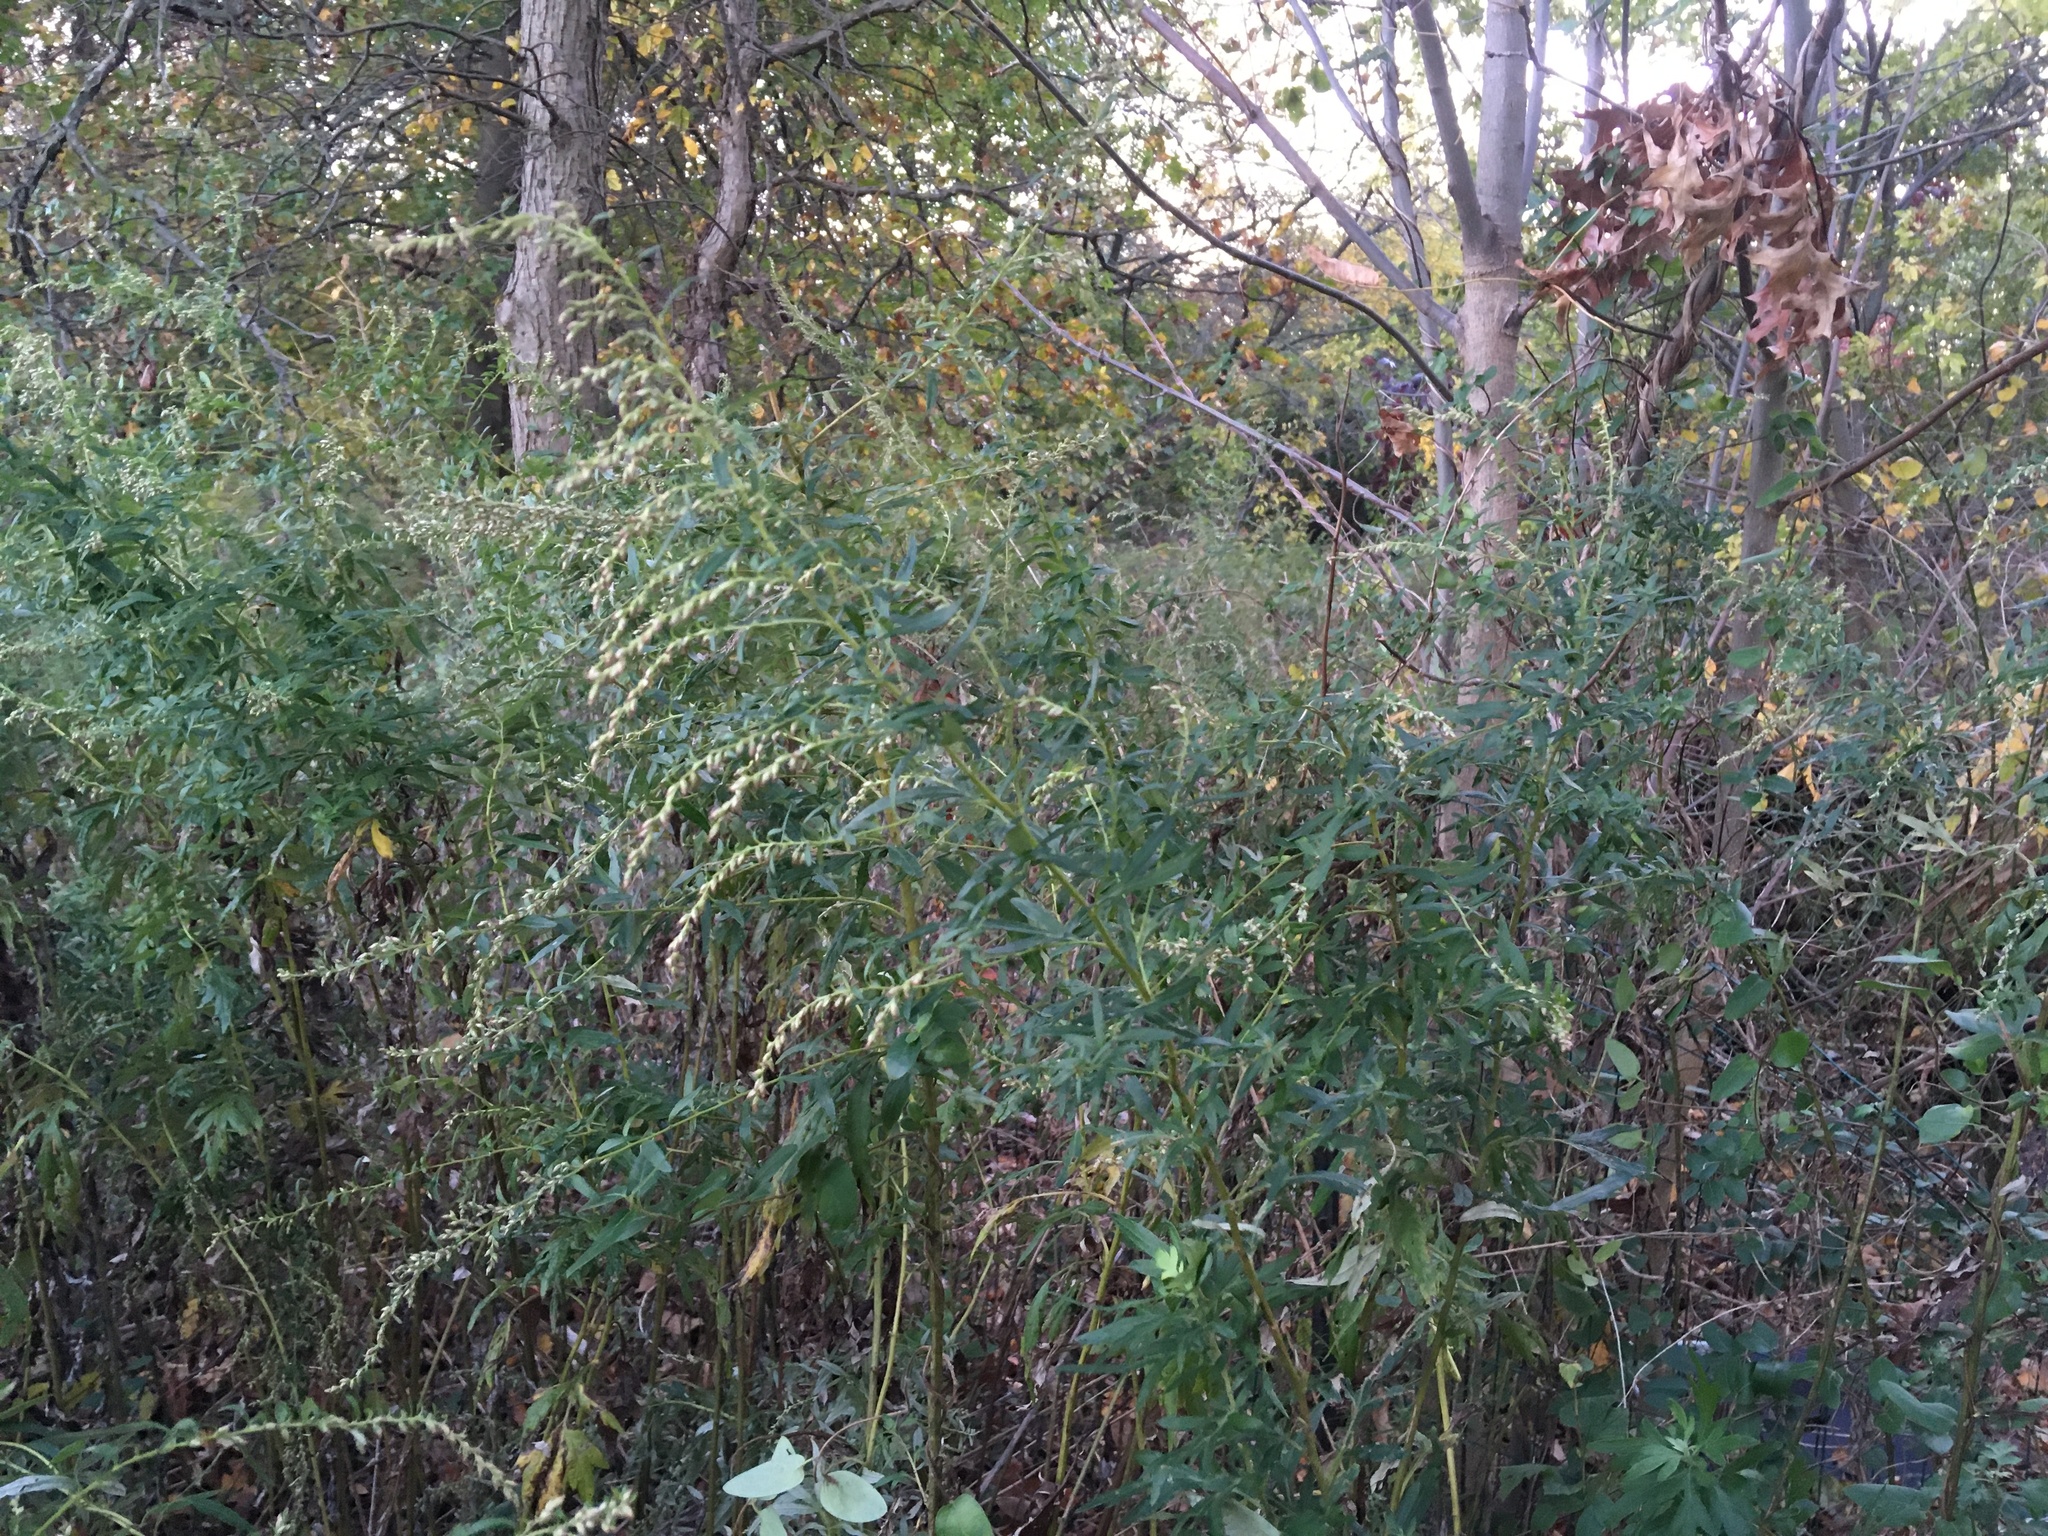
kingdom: Plantae
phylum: Tracheophyta
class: Magnoliopsida
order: Asterales
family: Asteraceae
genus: Artemisia
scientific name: Artemisia vulgaris
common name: Mugwort
